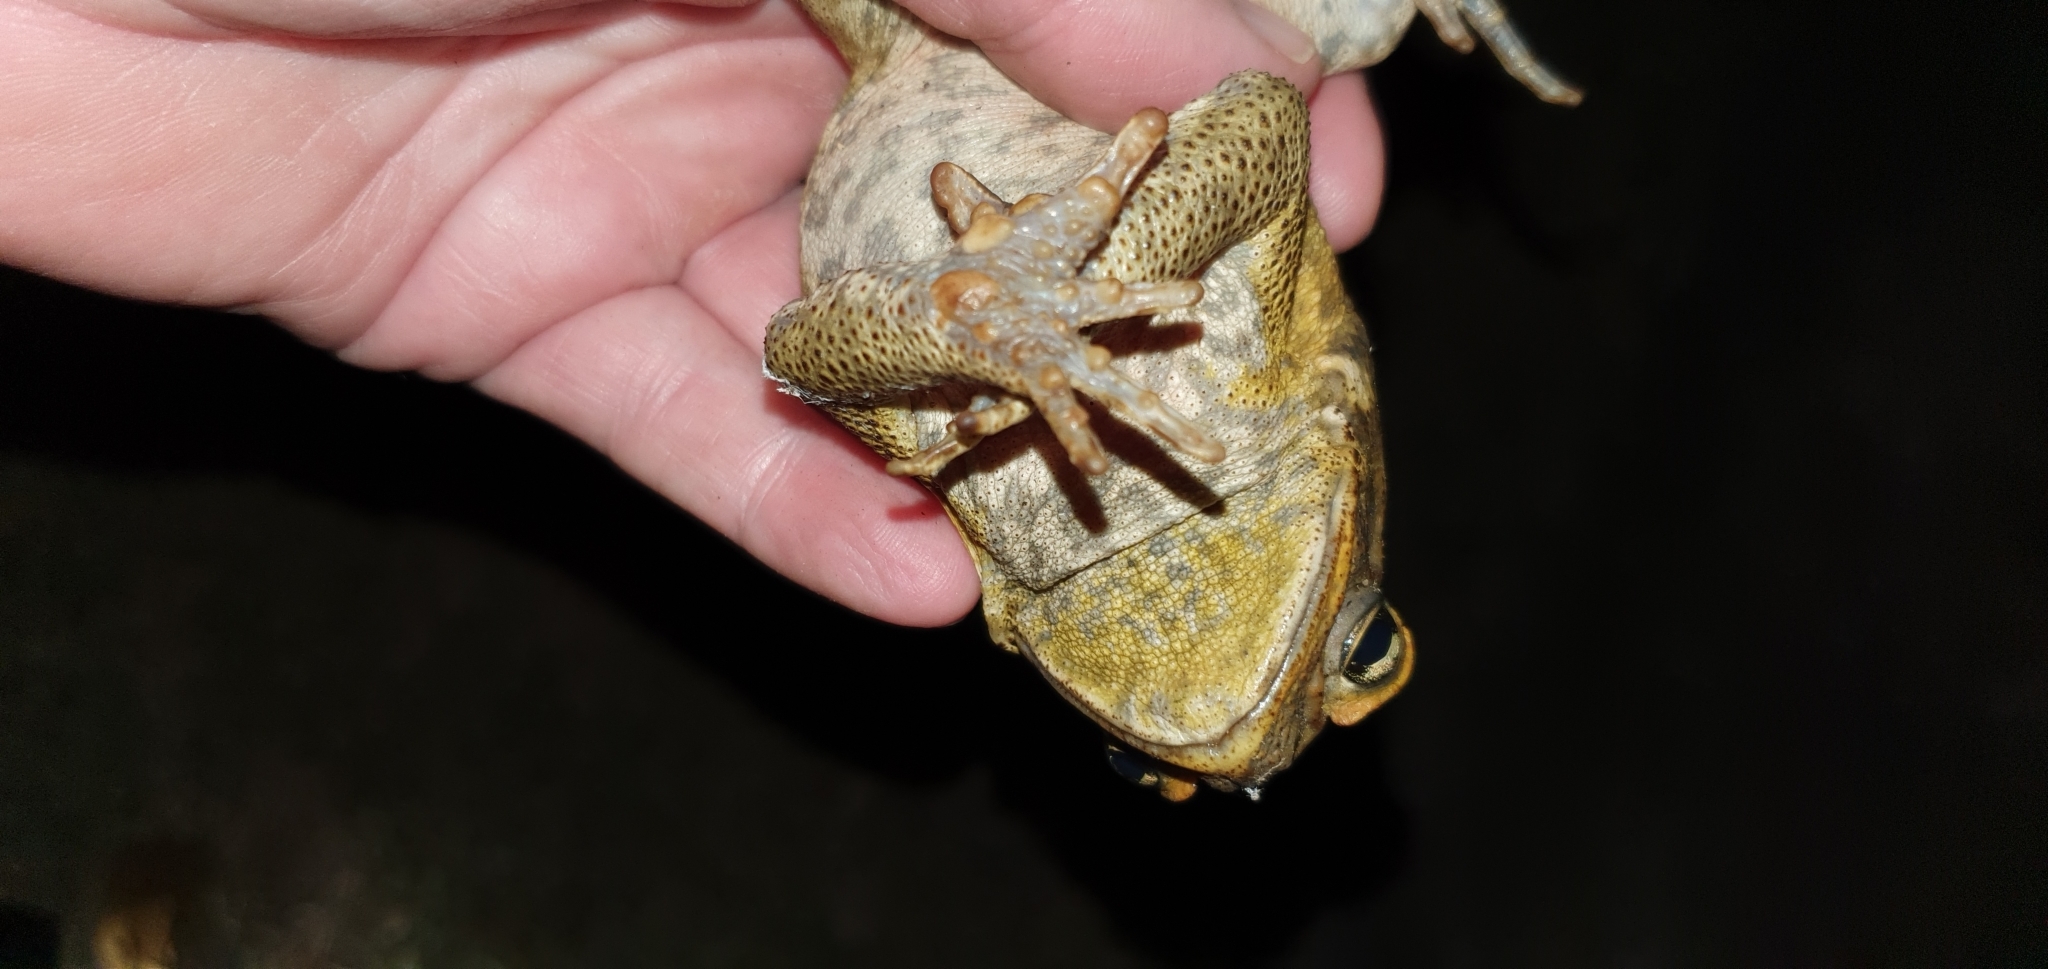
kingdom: Animalia
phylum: Chordata
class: Amphibia
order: Anura
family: Bufonidae
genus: Rhinella
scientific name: Rhinella marina
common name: Cane toad
